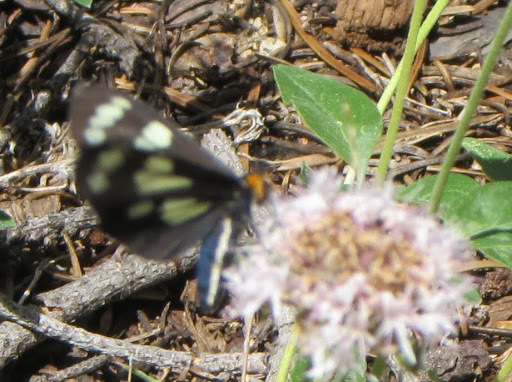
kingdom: Animalia
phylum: Arthropoda
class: Insecta
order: Lepidoptera
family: Erebidae
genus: Gnophaela
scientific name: Gnophaela latipennis
